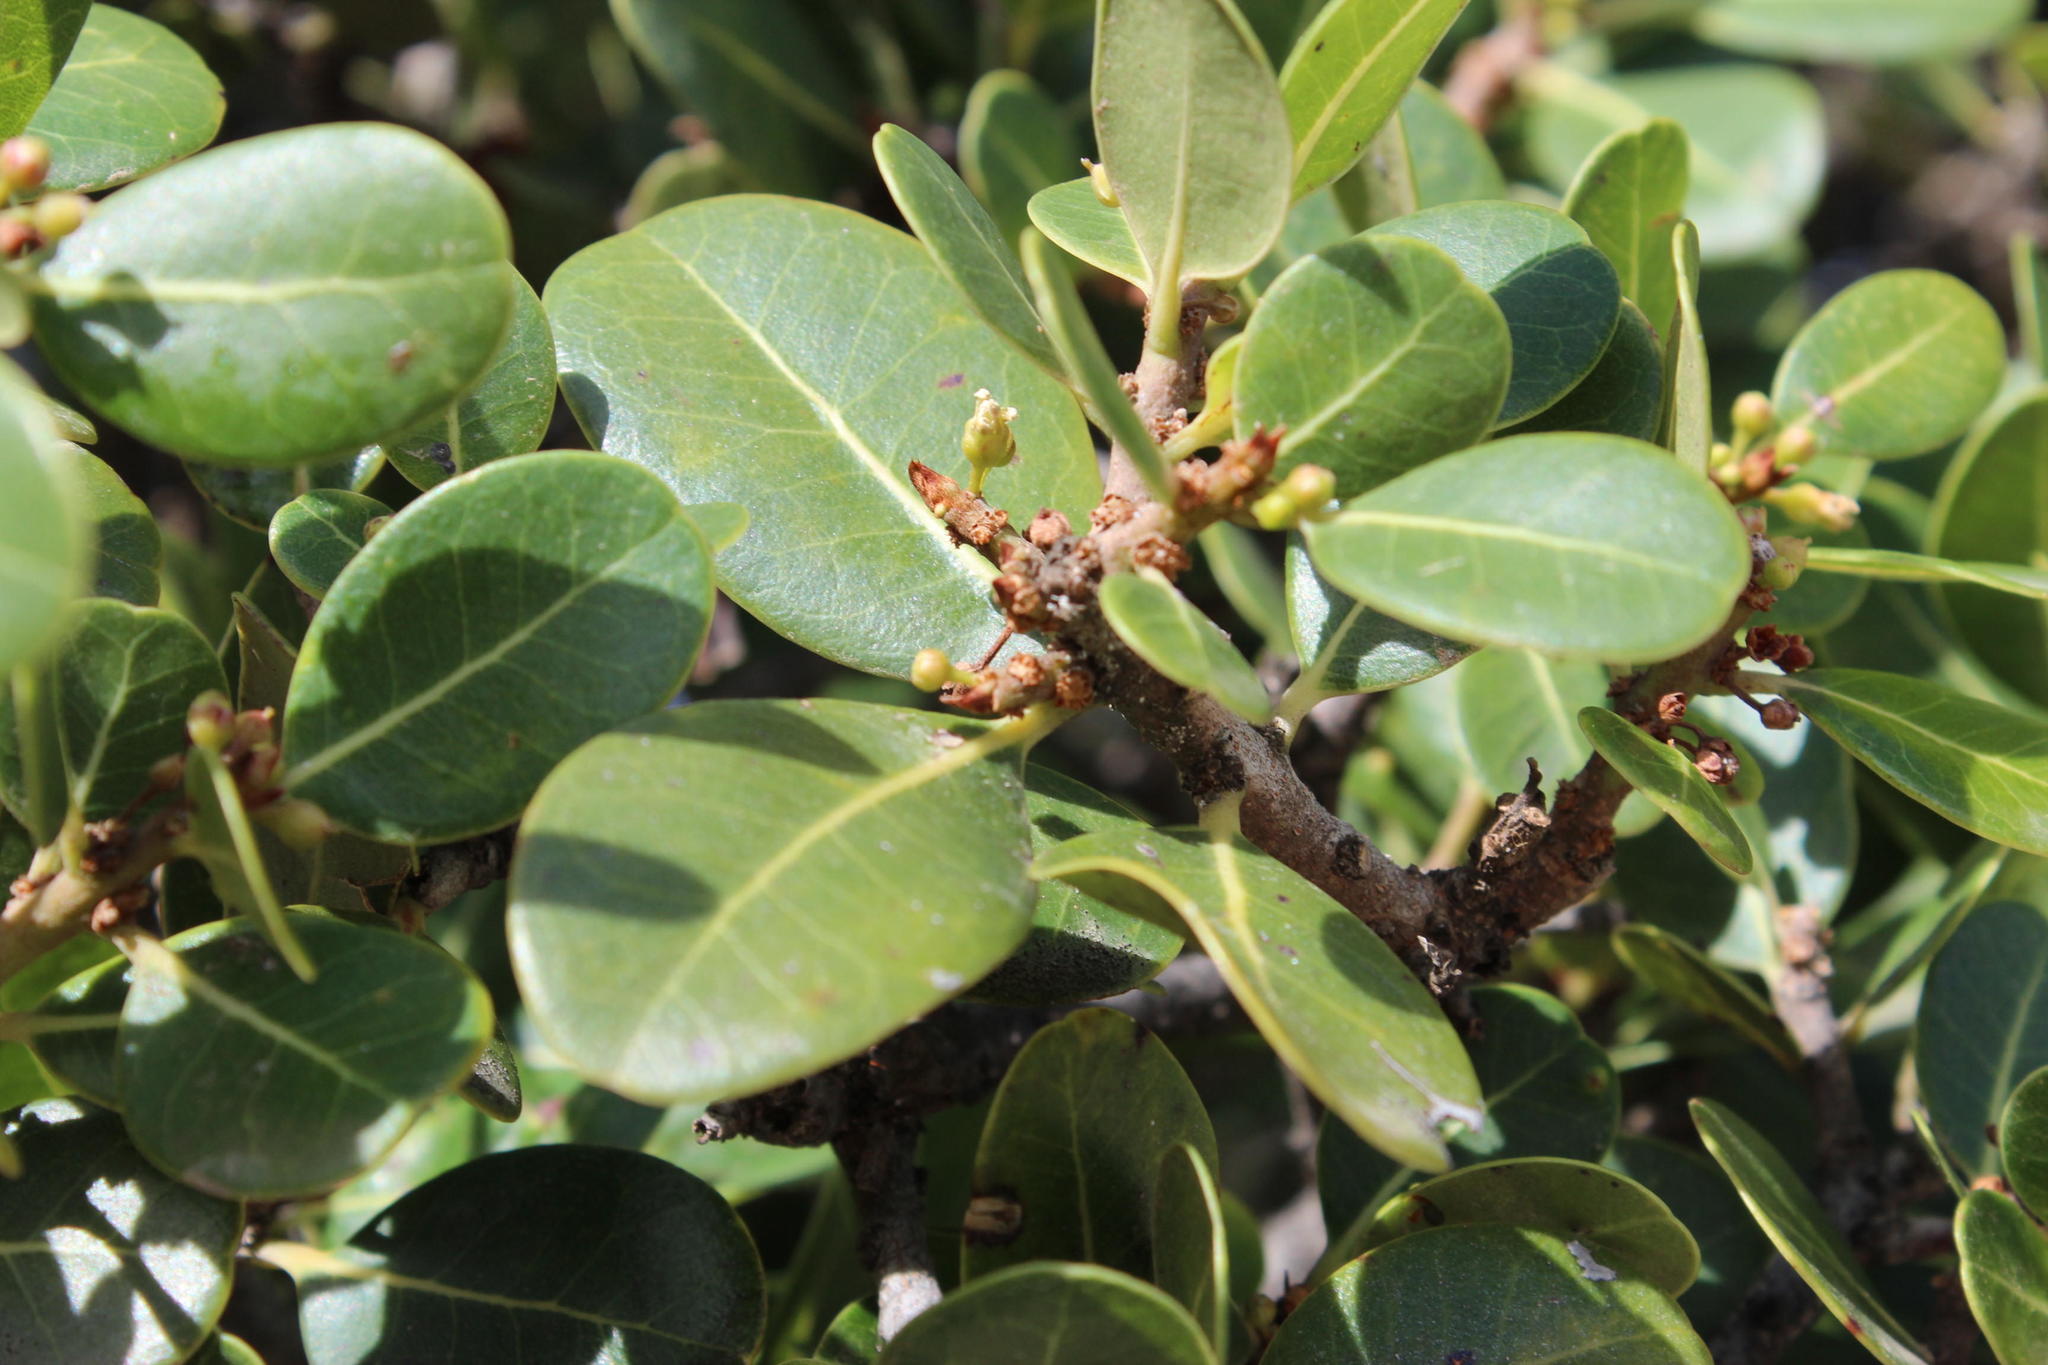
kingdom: Plantae
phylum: Tracheophyta
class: Magnoliopsida
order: Ericales
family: Sapotaceae
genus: Sideroxylon
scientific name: Sideroxylon inerme
